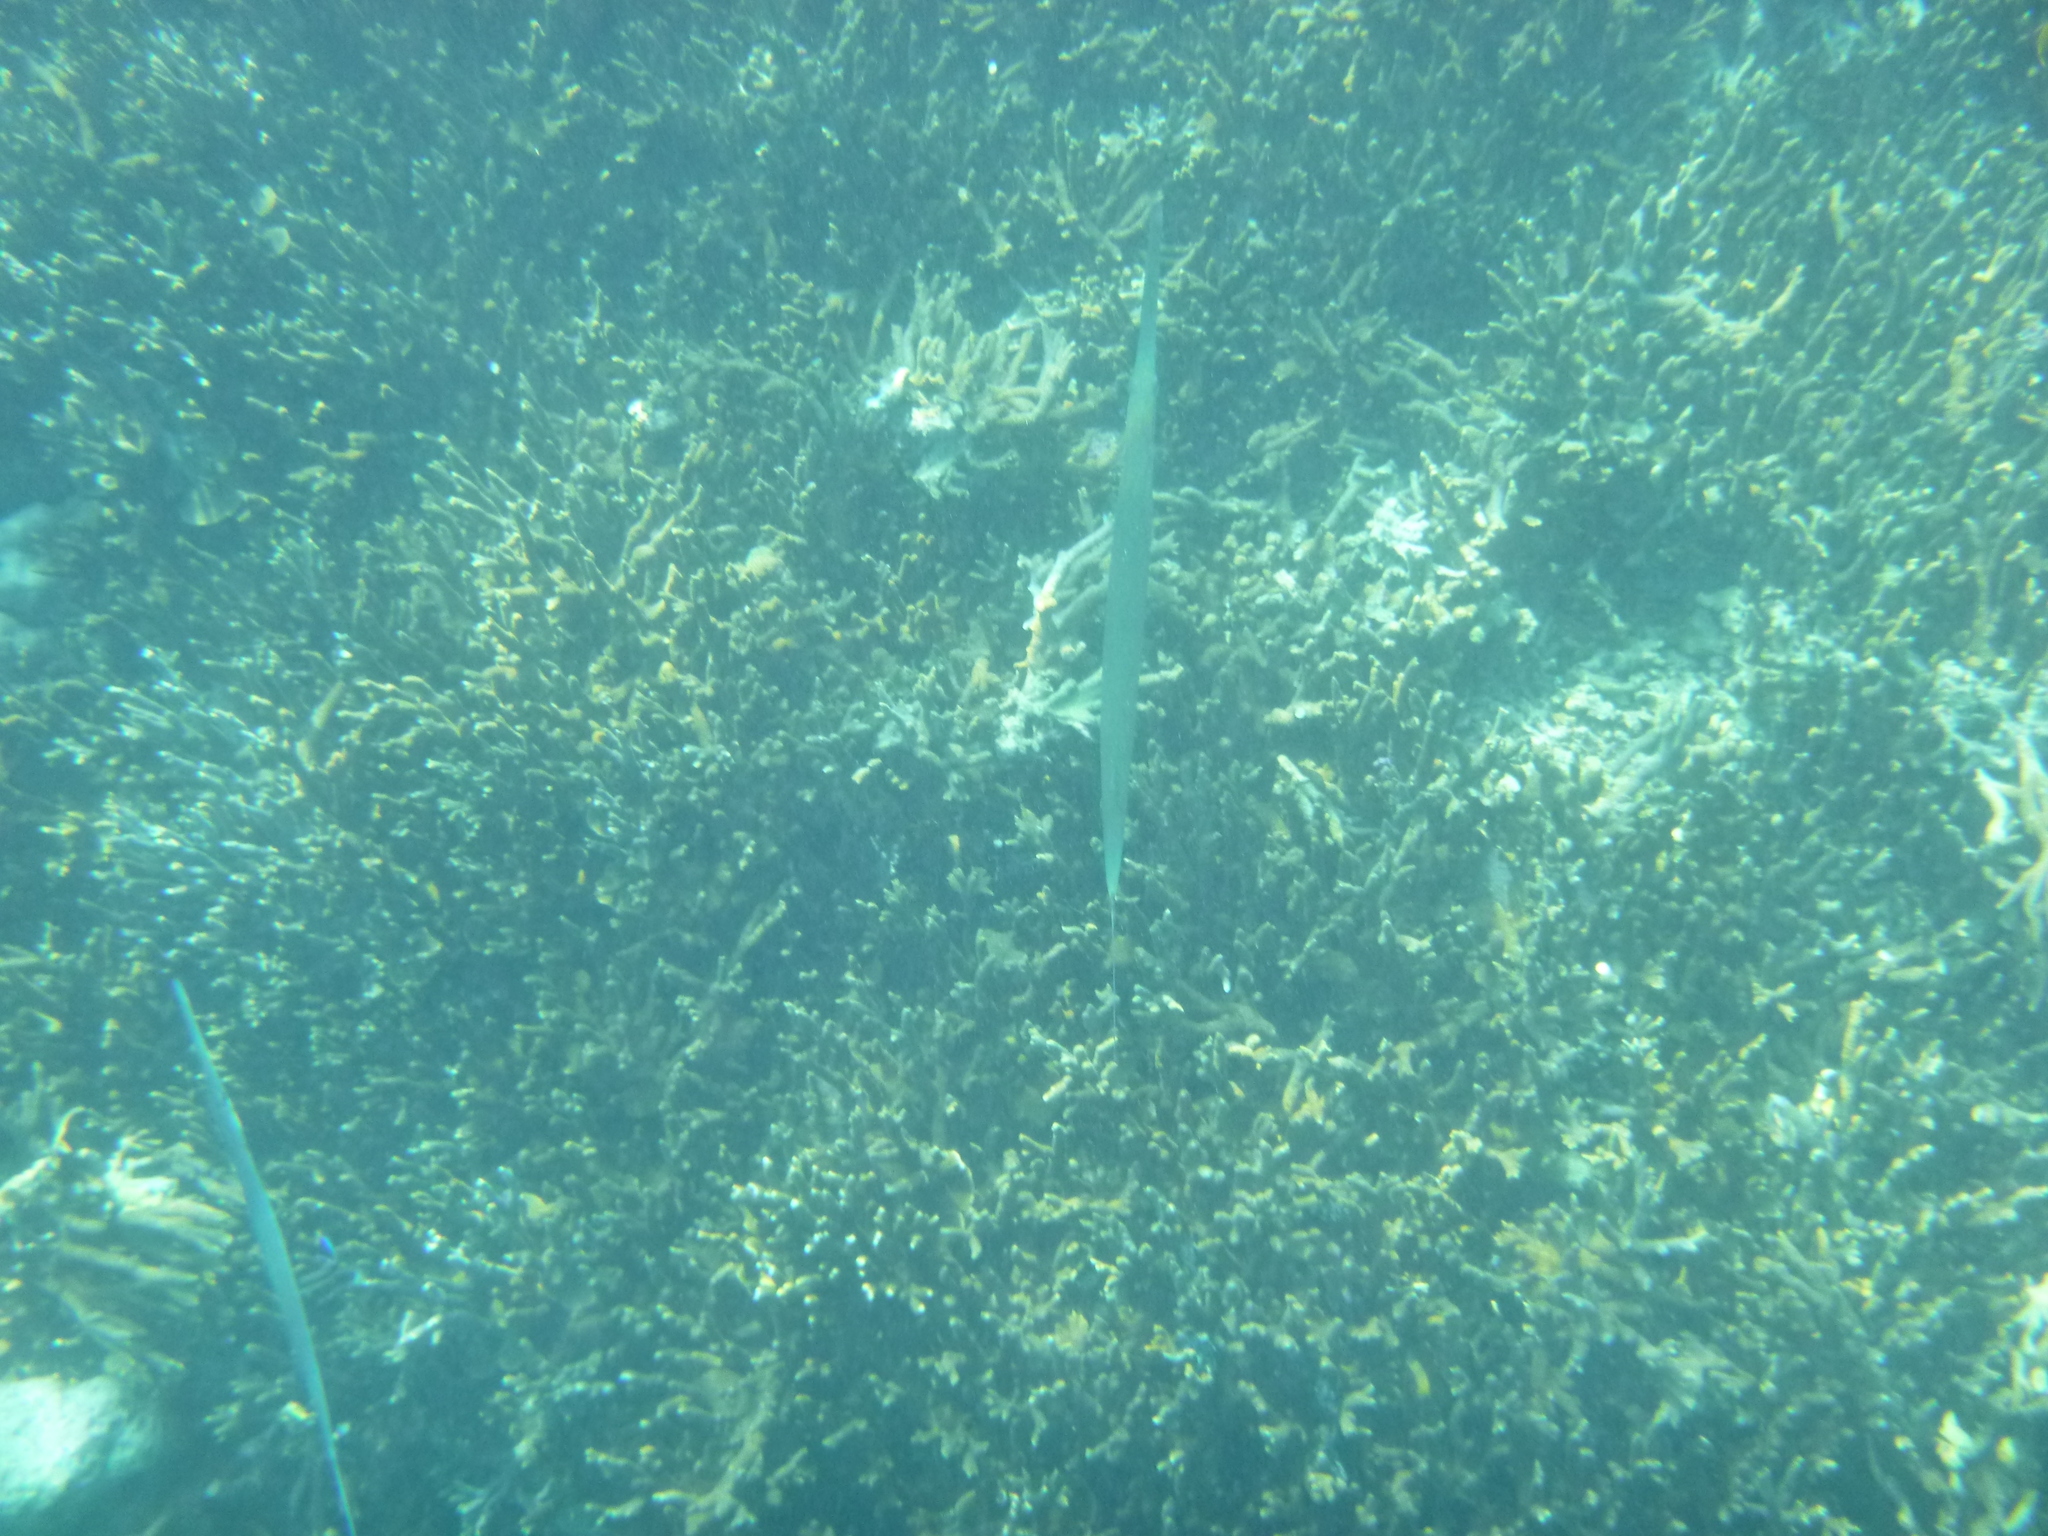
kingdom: Animalia
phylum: Chordata
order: Syngnathiformes
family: Fistulariidae
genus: Fistularia
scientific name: Fistularia commersonii
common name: Bluespotted cornetfish
